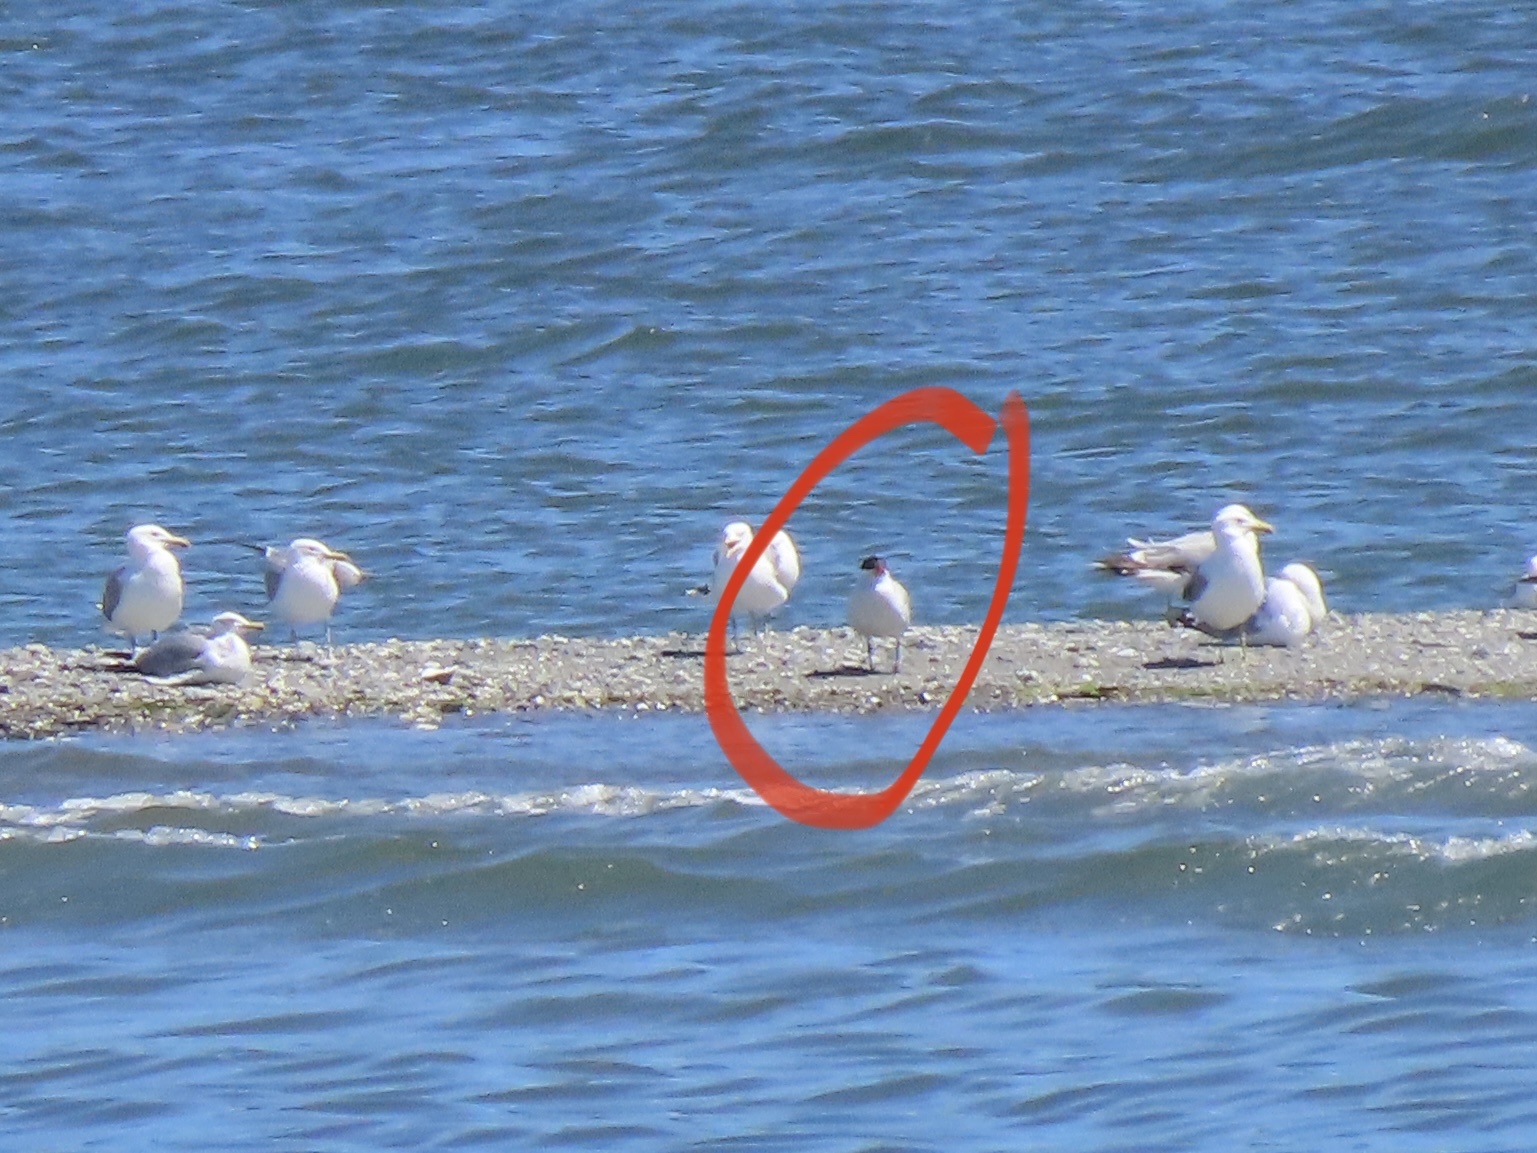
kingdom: Animalia
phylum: Chordata
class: Aves
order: Charadriiformes
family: Laridae
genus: Hydroprogne
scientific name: Hydroprogne caspia
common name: Caspian tern
